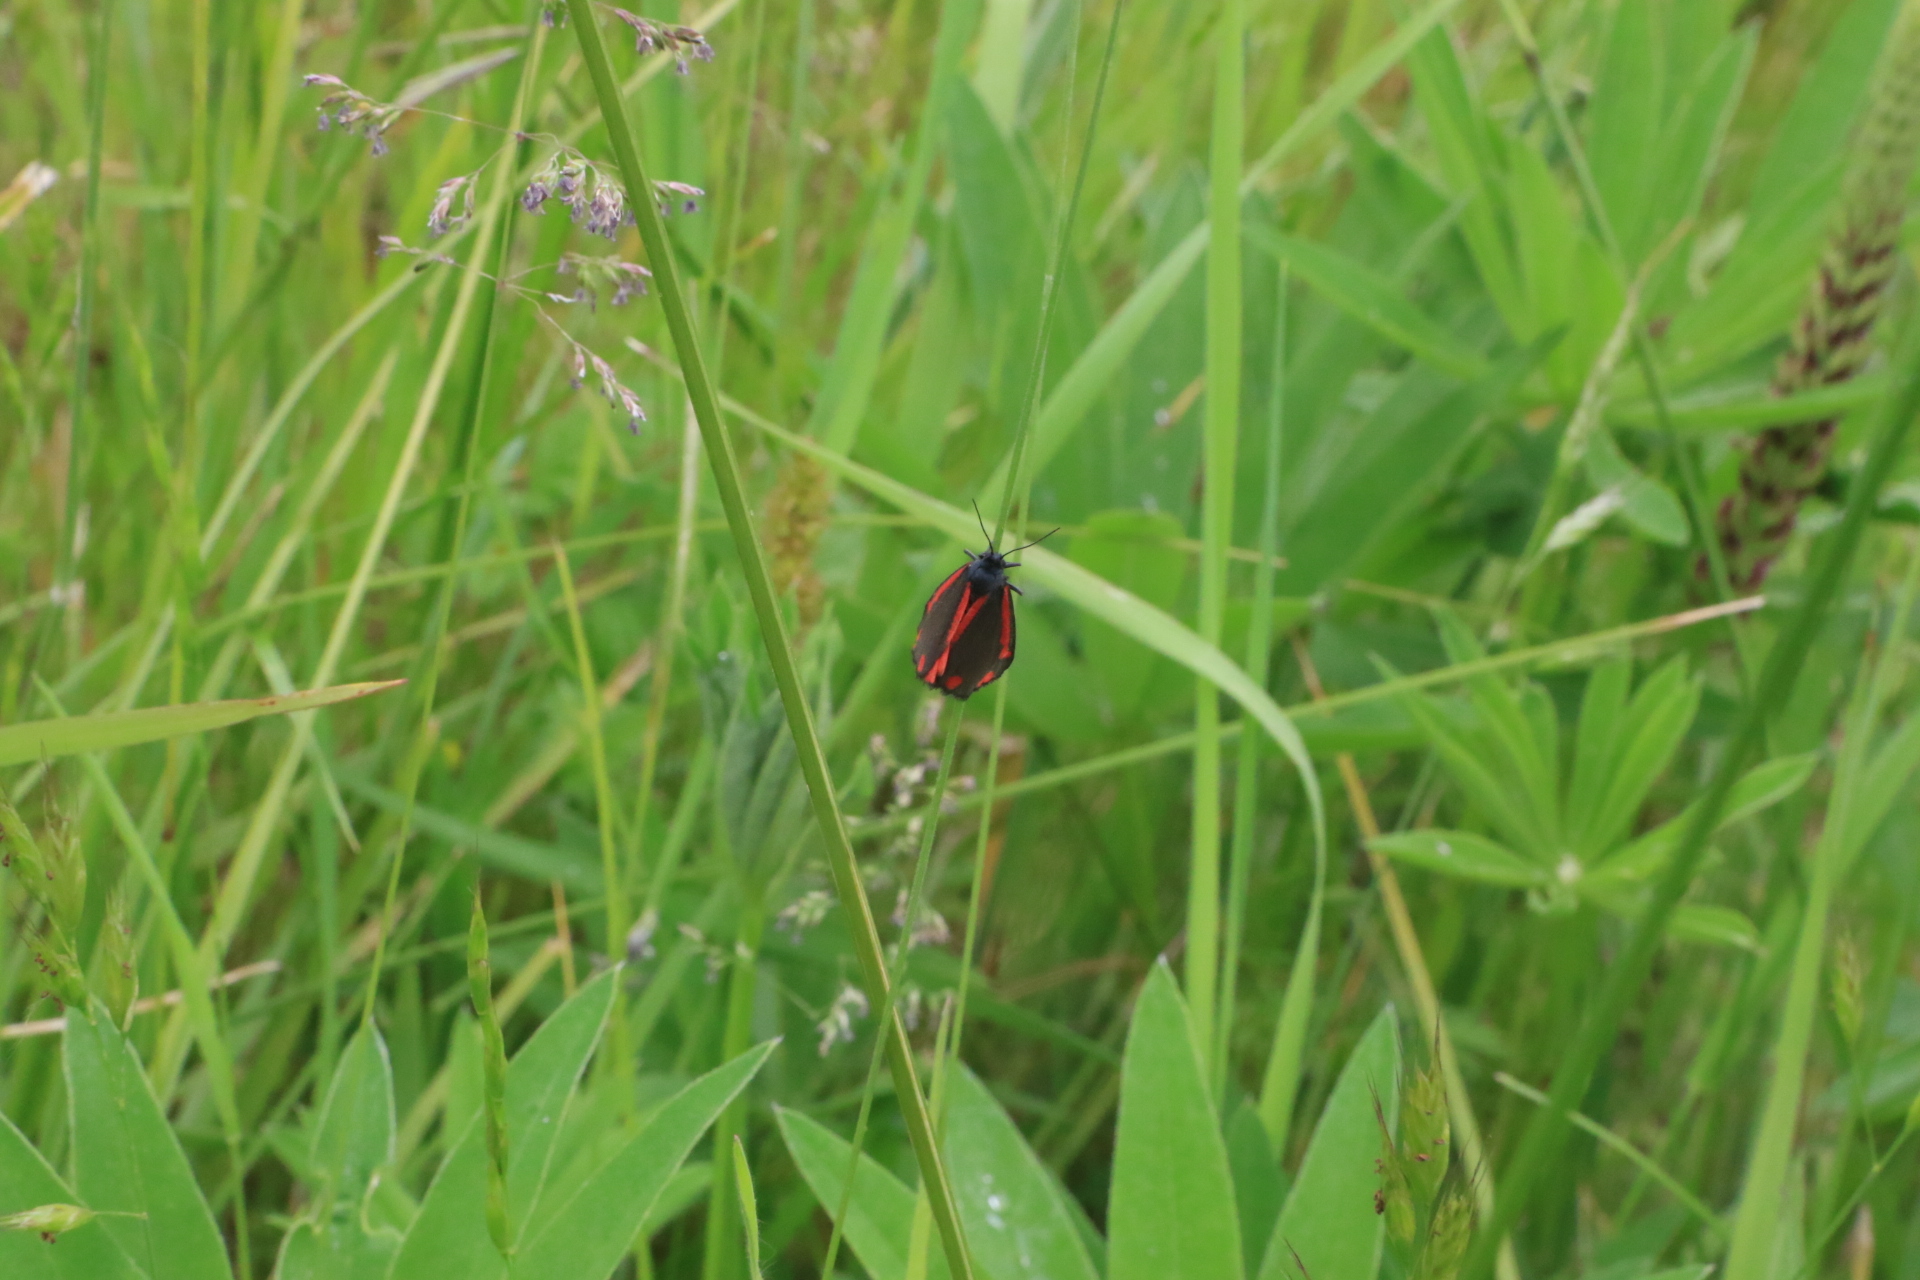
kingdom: Animalia
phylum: Arthropoda
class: Insecta
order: Lepidoptera
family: Erebidae
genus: Tyria
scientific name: Tyria jacobaeae
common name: Cinnabar
